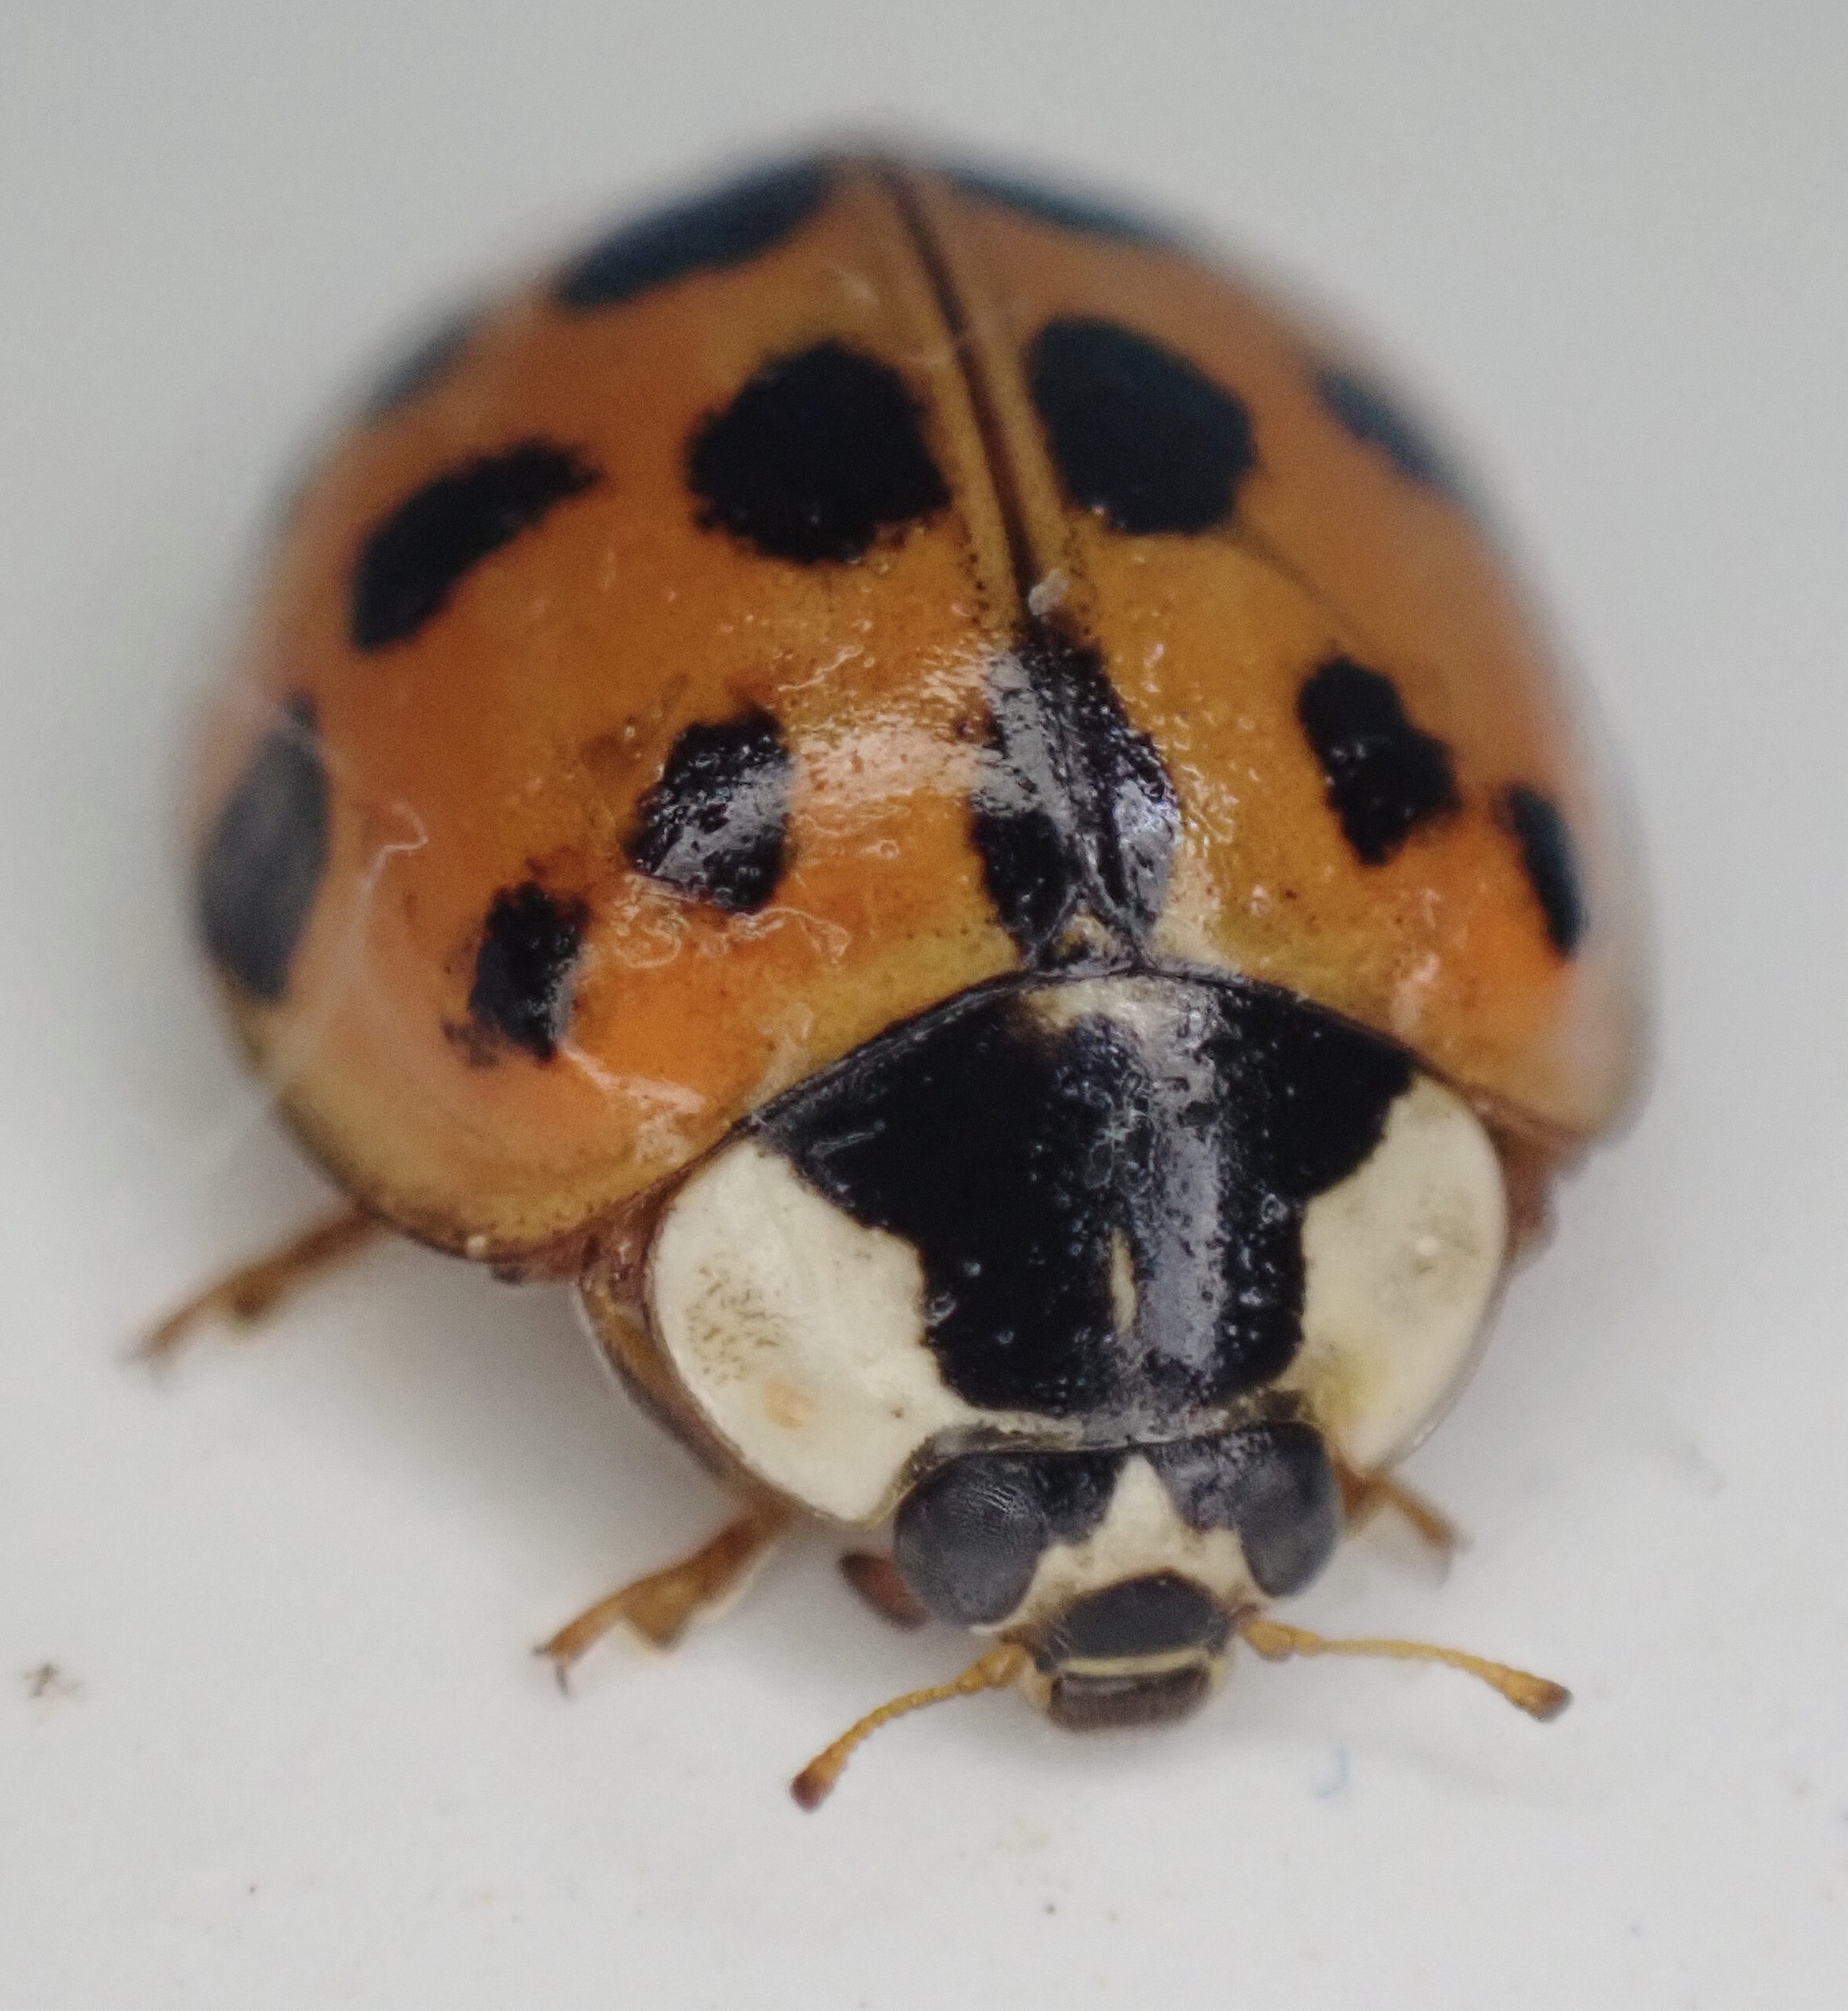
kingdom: Animalia
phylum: Arthropoda
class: Insecta
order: Coleoptera
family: Coccinellidae
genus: Harmonia
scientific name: Harmonia axyridis
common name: Harlequin ladybird
